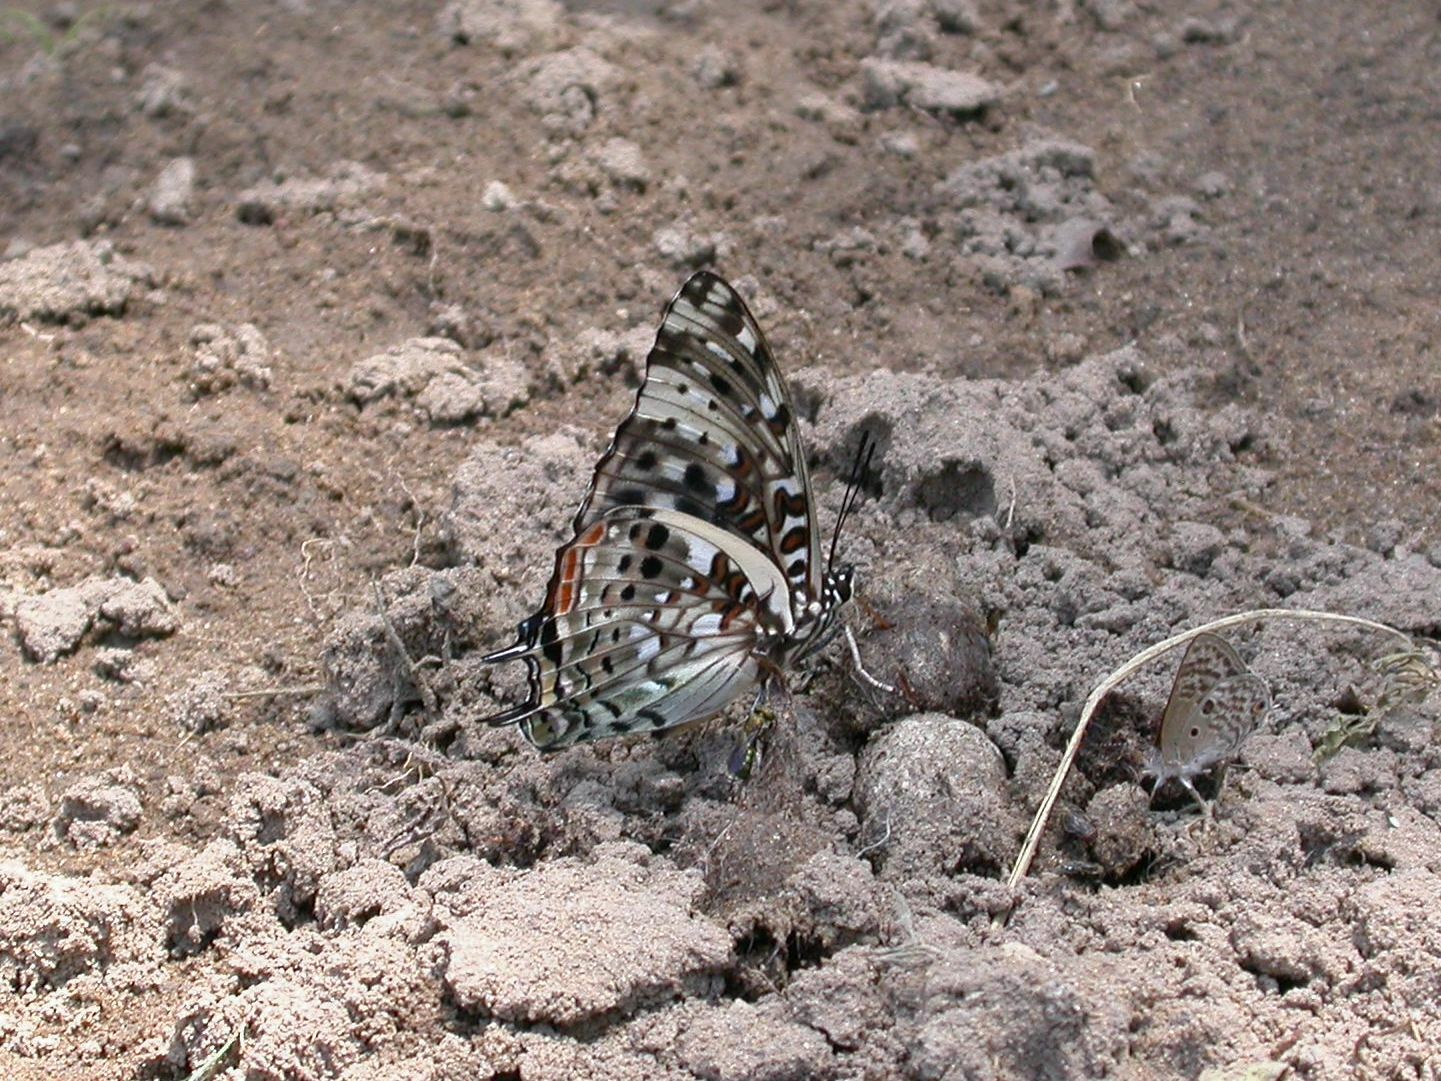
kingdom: Animalia
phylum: Arthropoda
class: Insecta
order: Lepidoptera
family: Nymphalidae
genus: Charaxes
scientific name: Charaxes etesipe
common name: Savannah charaxes
